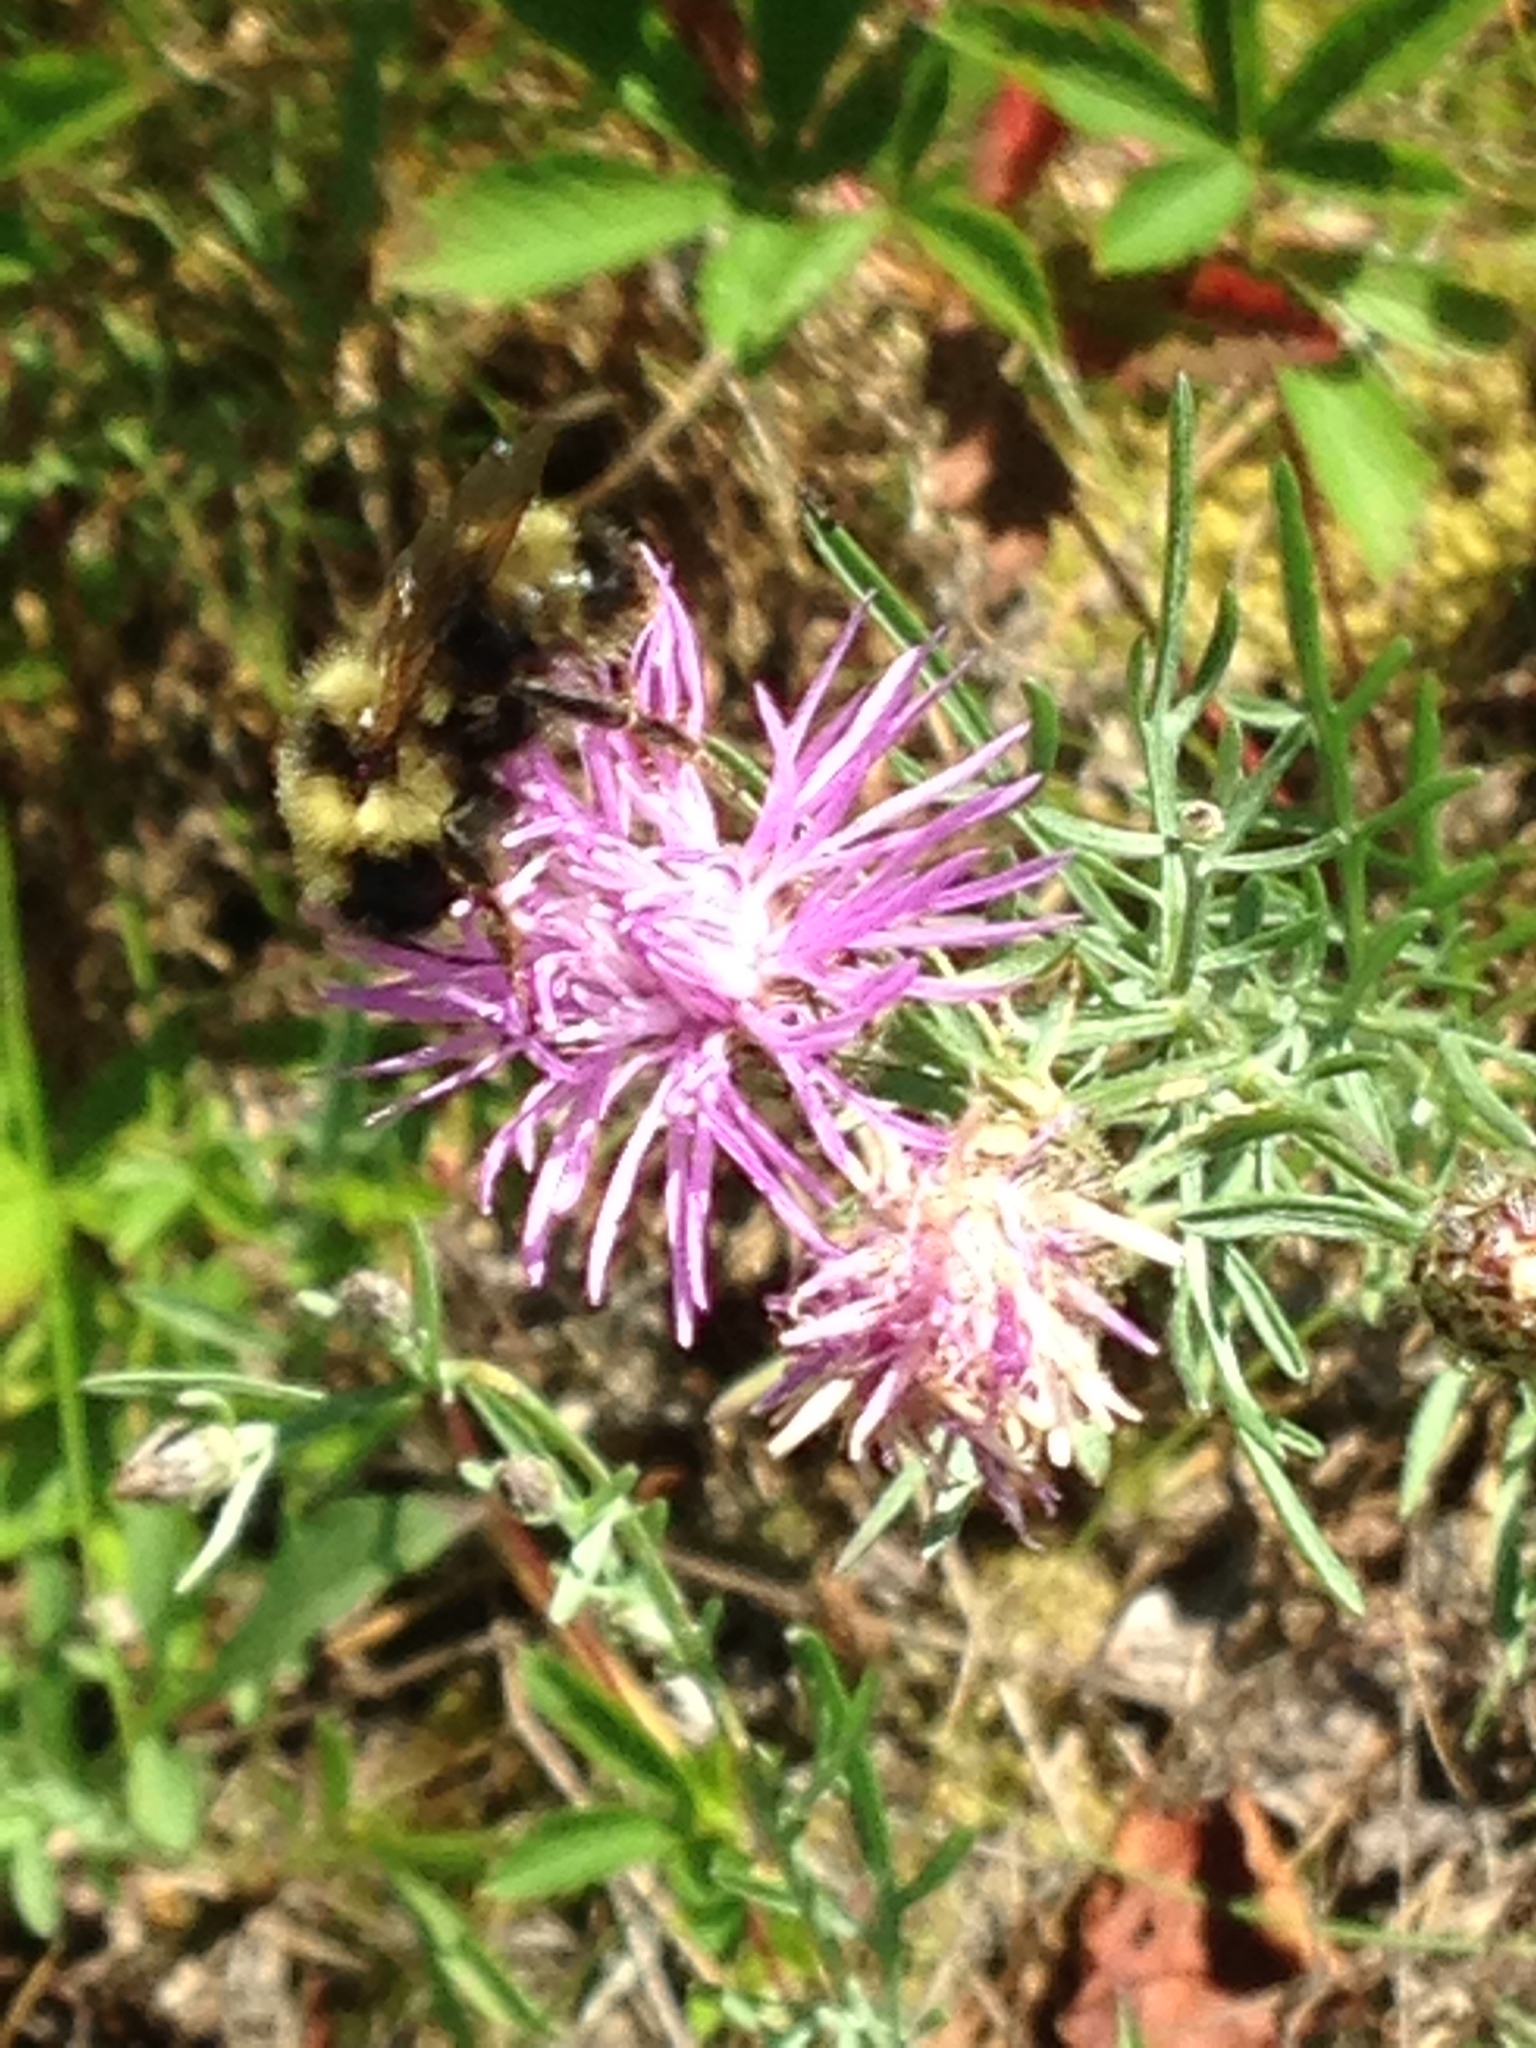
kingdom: Animalia
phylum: Arthropoda
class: Insecta
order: Hymenoptera
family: Apidae
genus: Bombus
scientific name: Bombus flavidus
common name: Fernald cuckoo bumble bee
